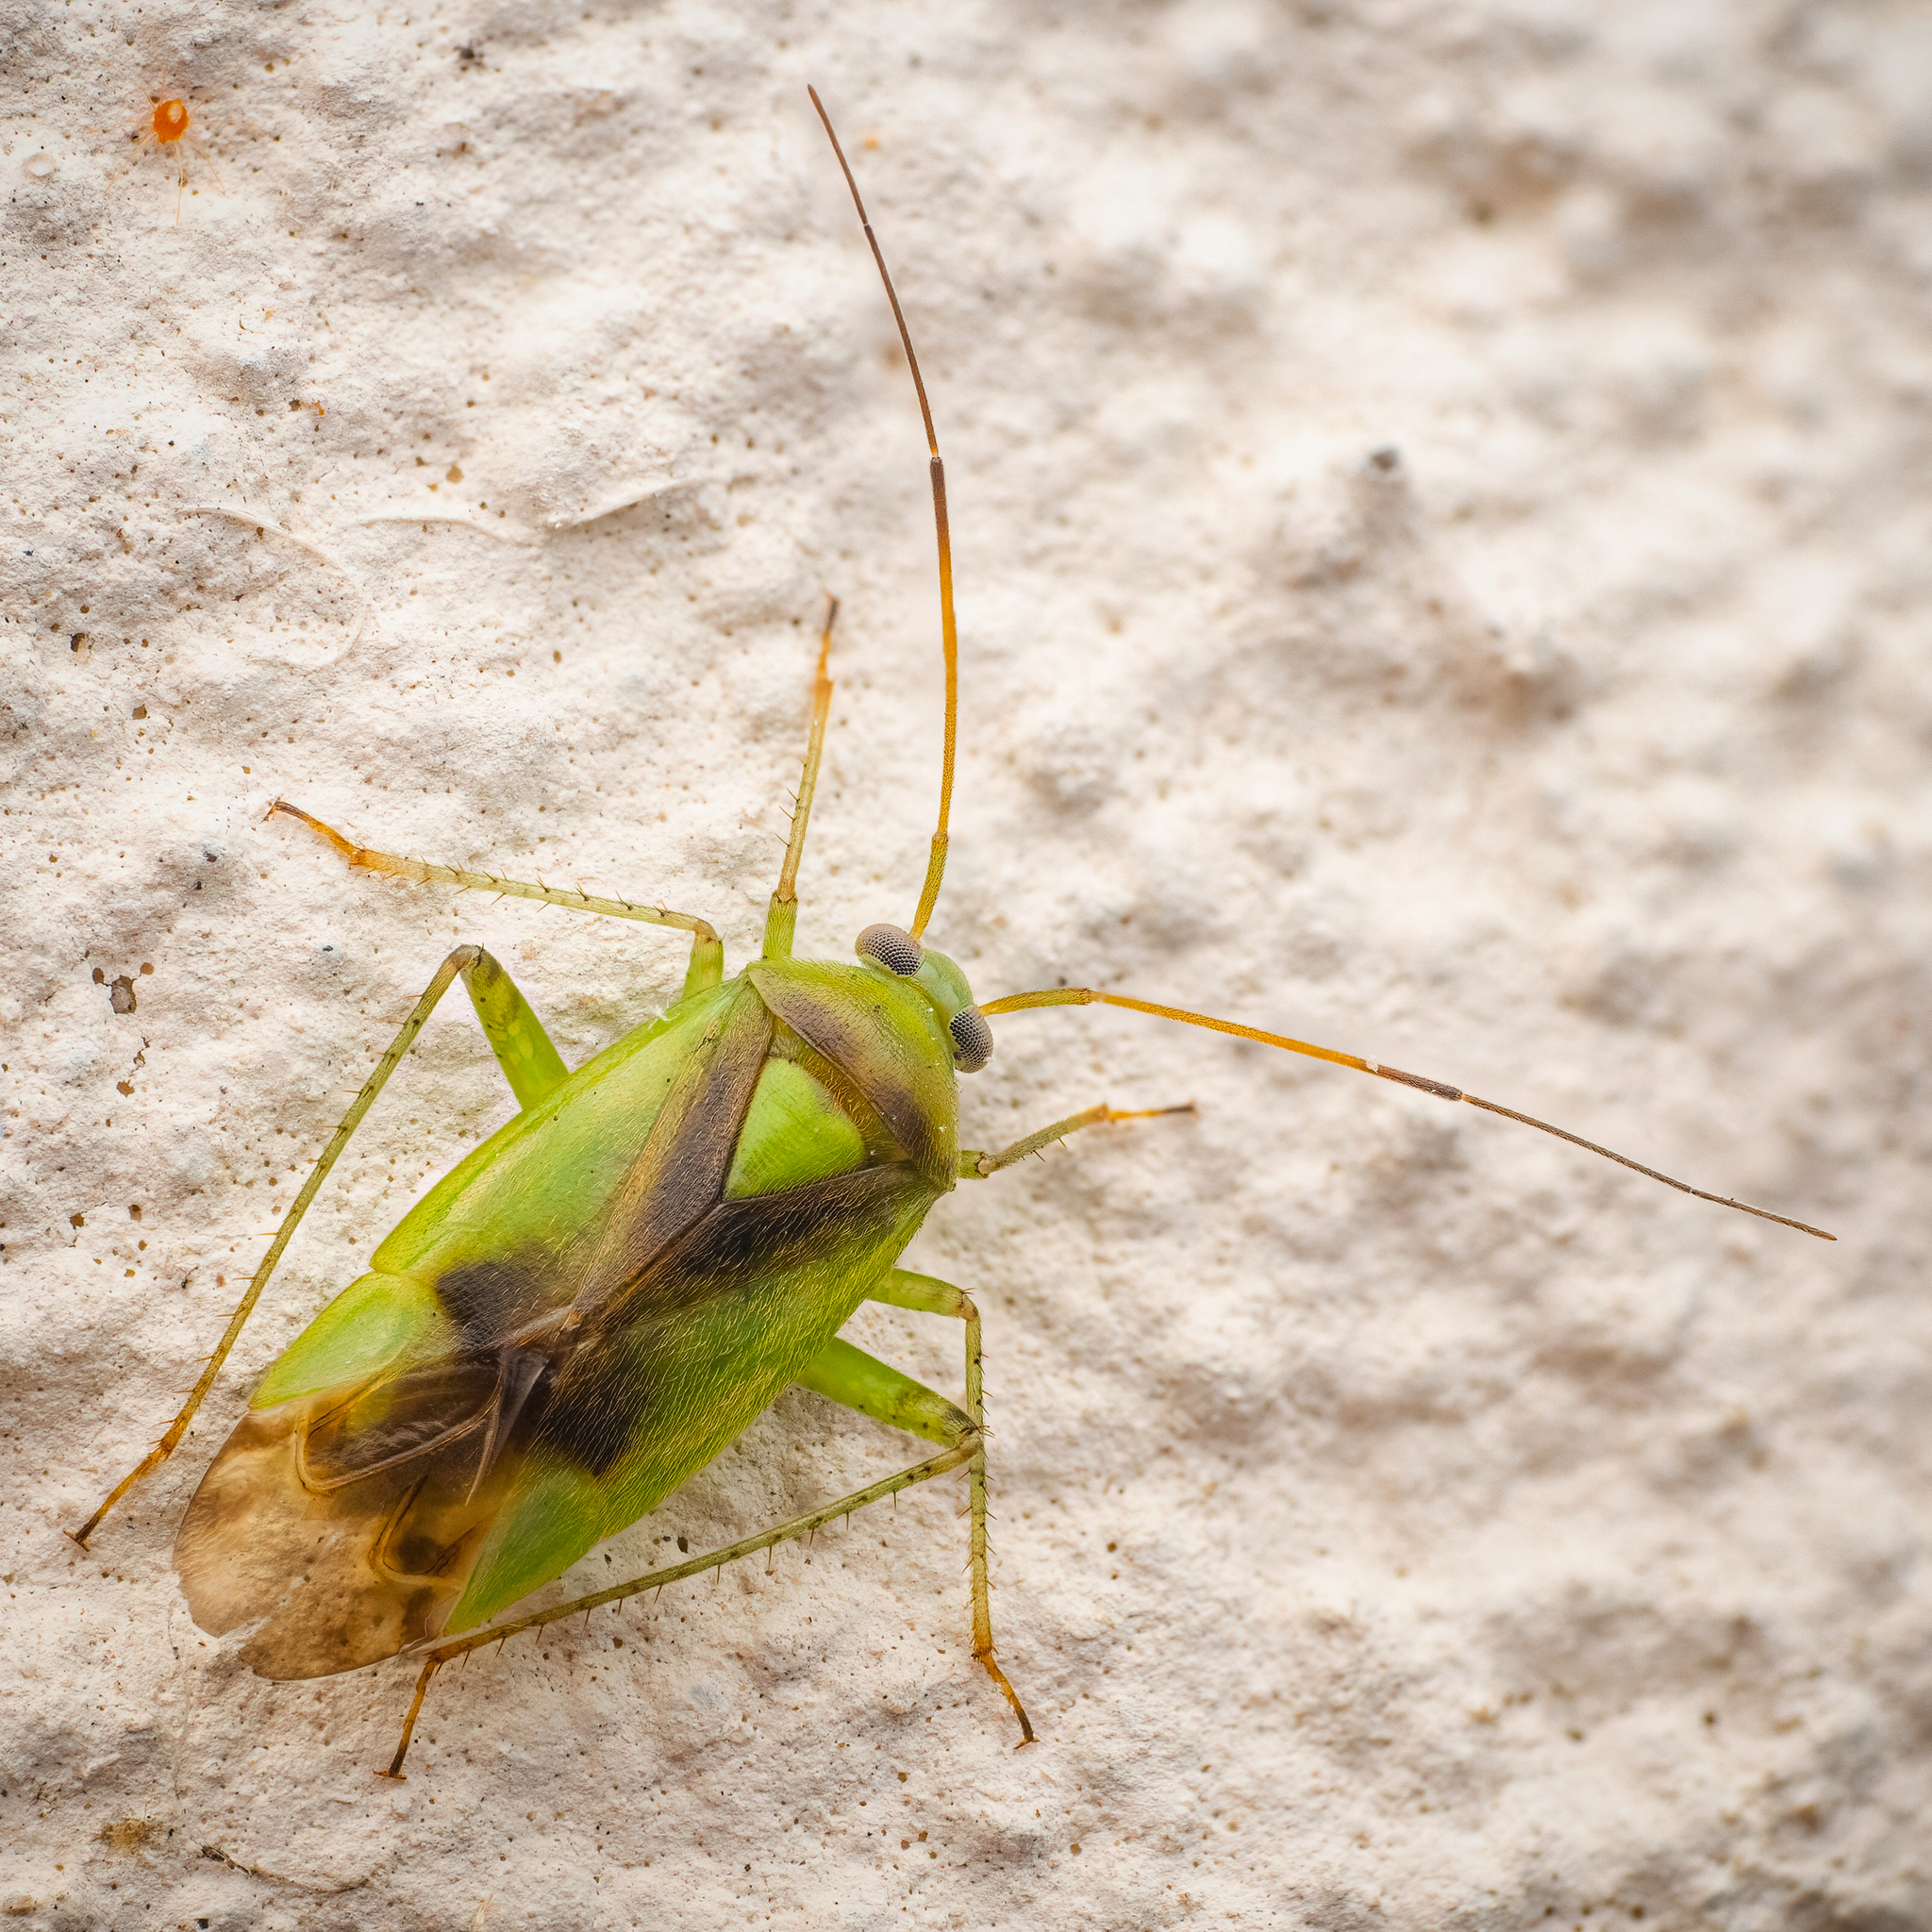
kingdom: Animalia
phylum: Arthropoda
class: Insecta
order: Hemiptera
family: Miridae
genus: Neolygus
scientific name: Neolygus viridis
